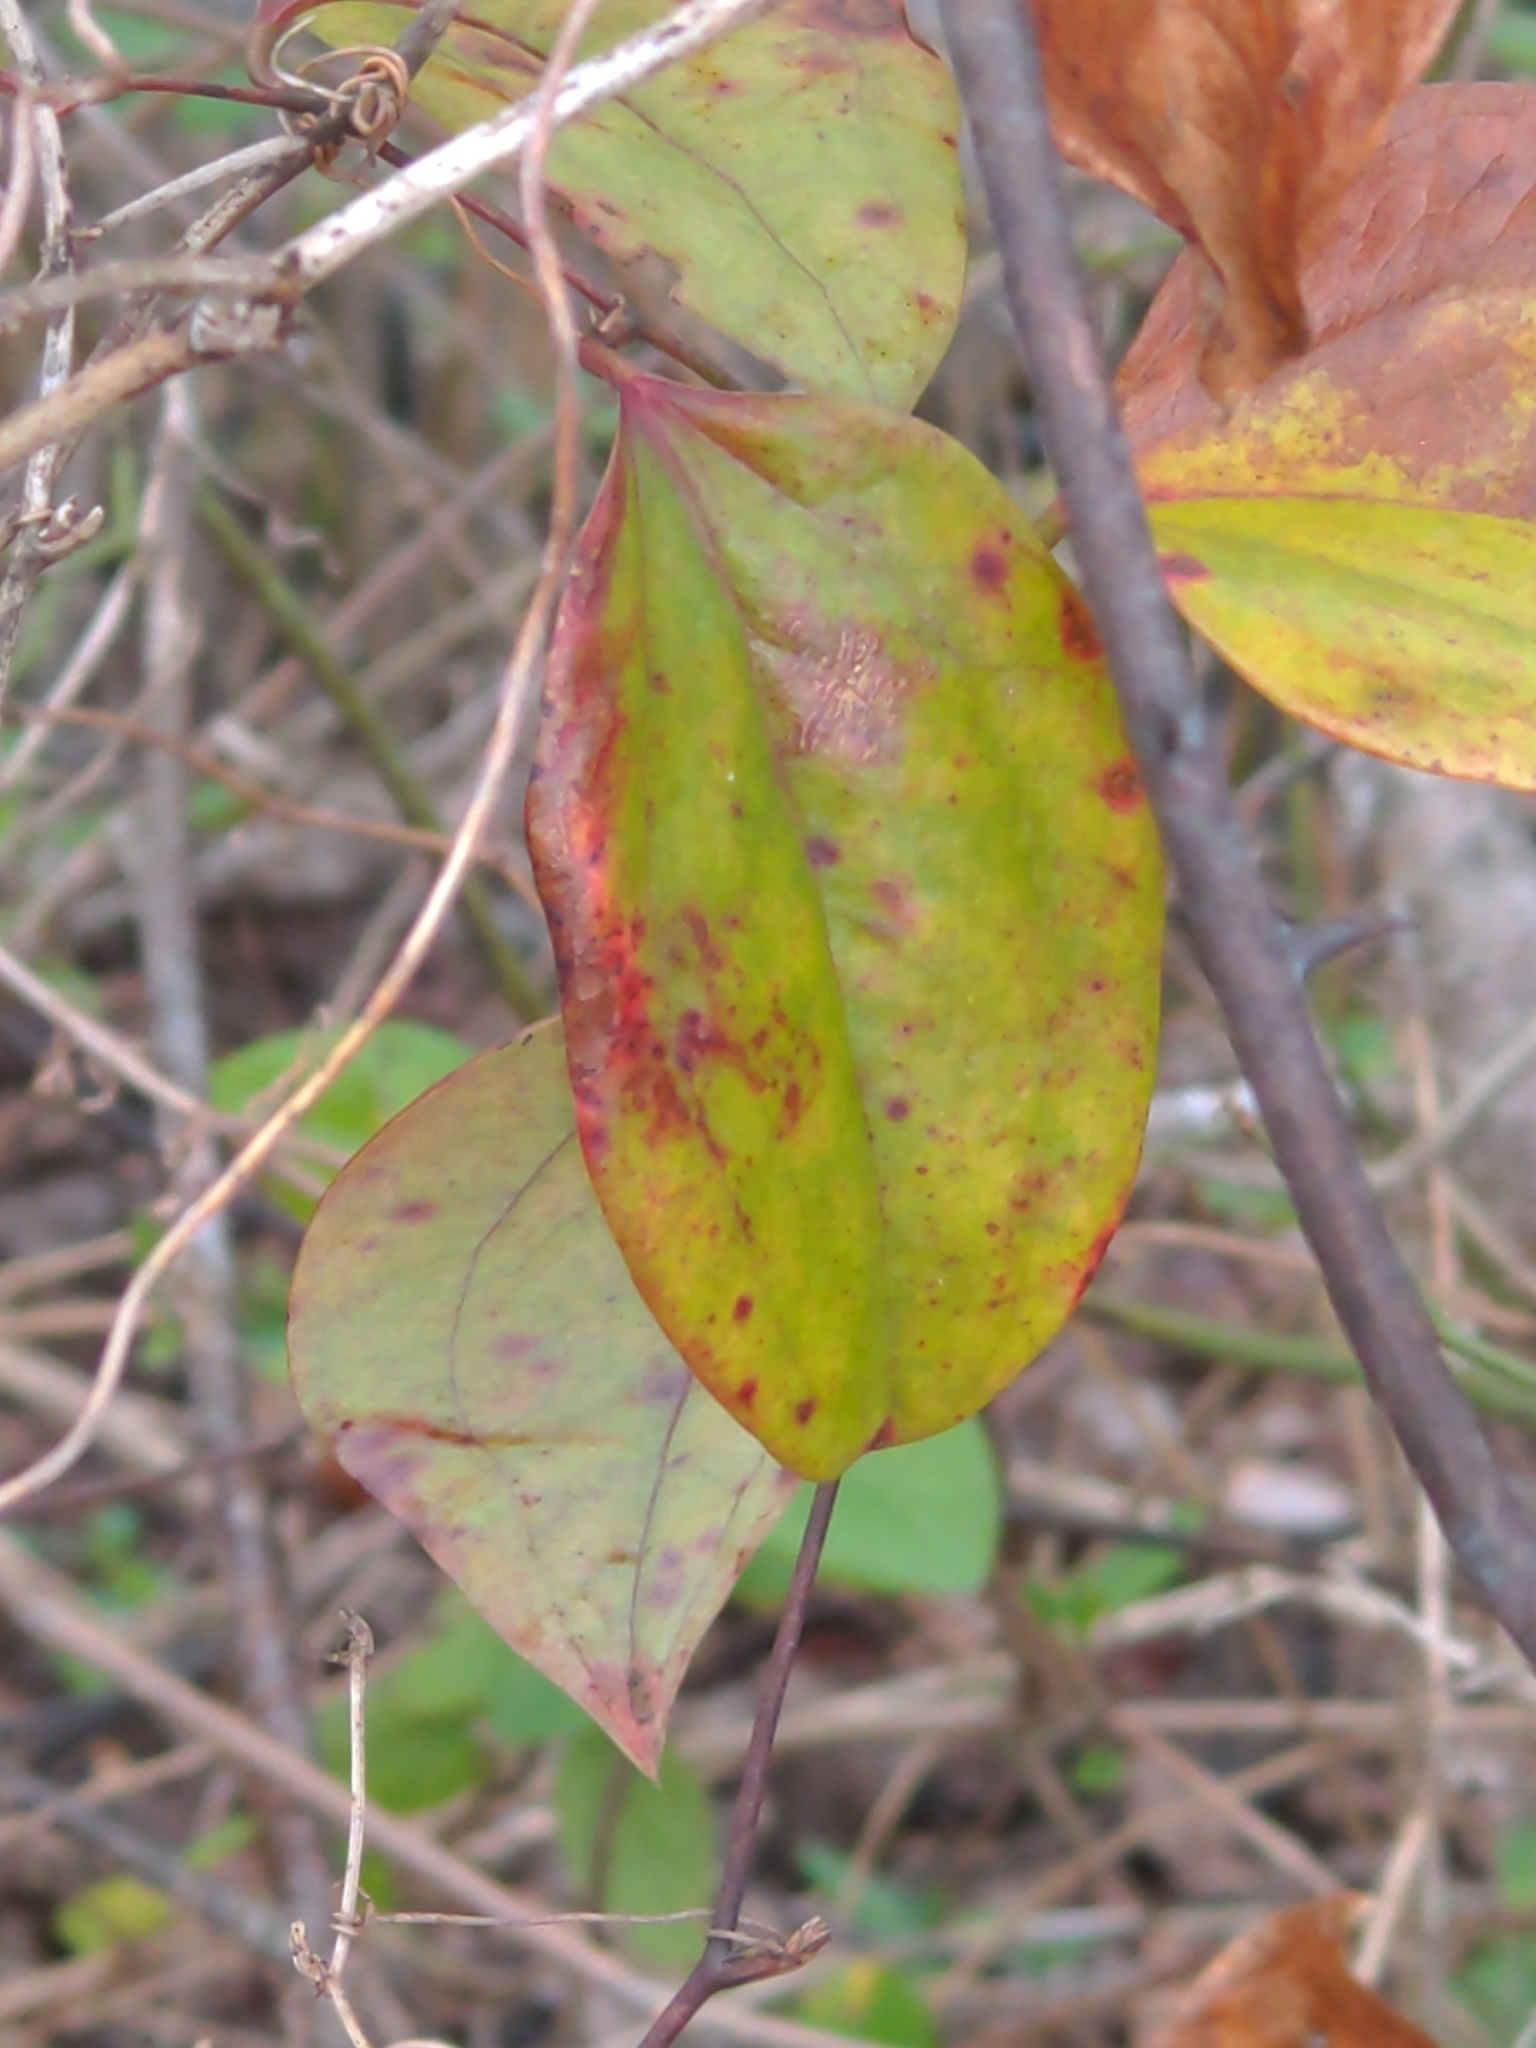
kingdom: Plantae
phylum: Tracheophyta
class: Liliopsida
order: Liliales
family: Smilacaceae
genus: Smilax
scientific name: Smilax glauca
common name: Cat greenbrier
